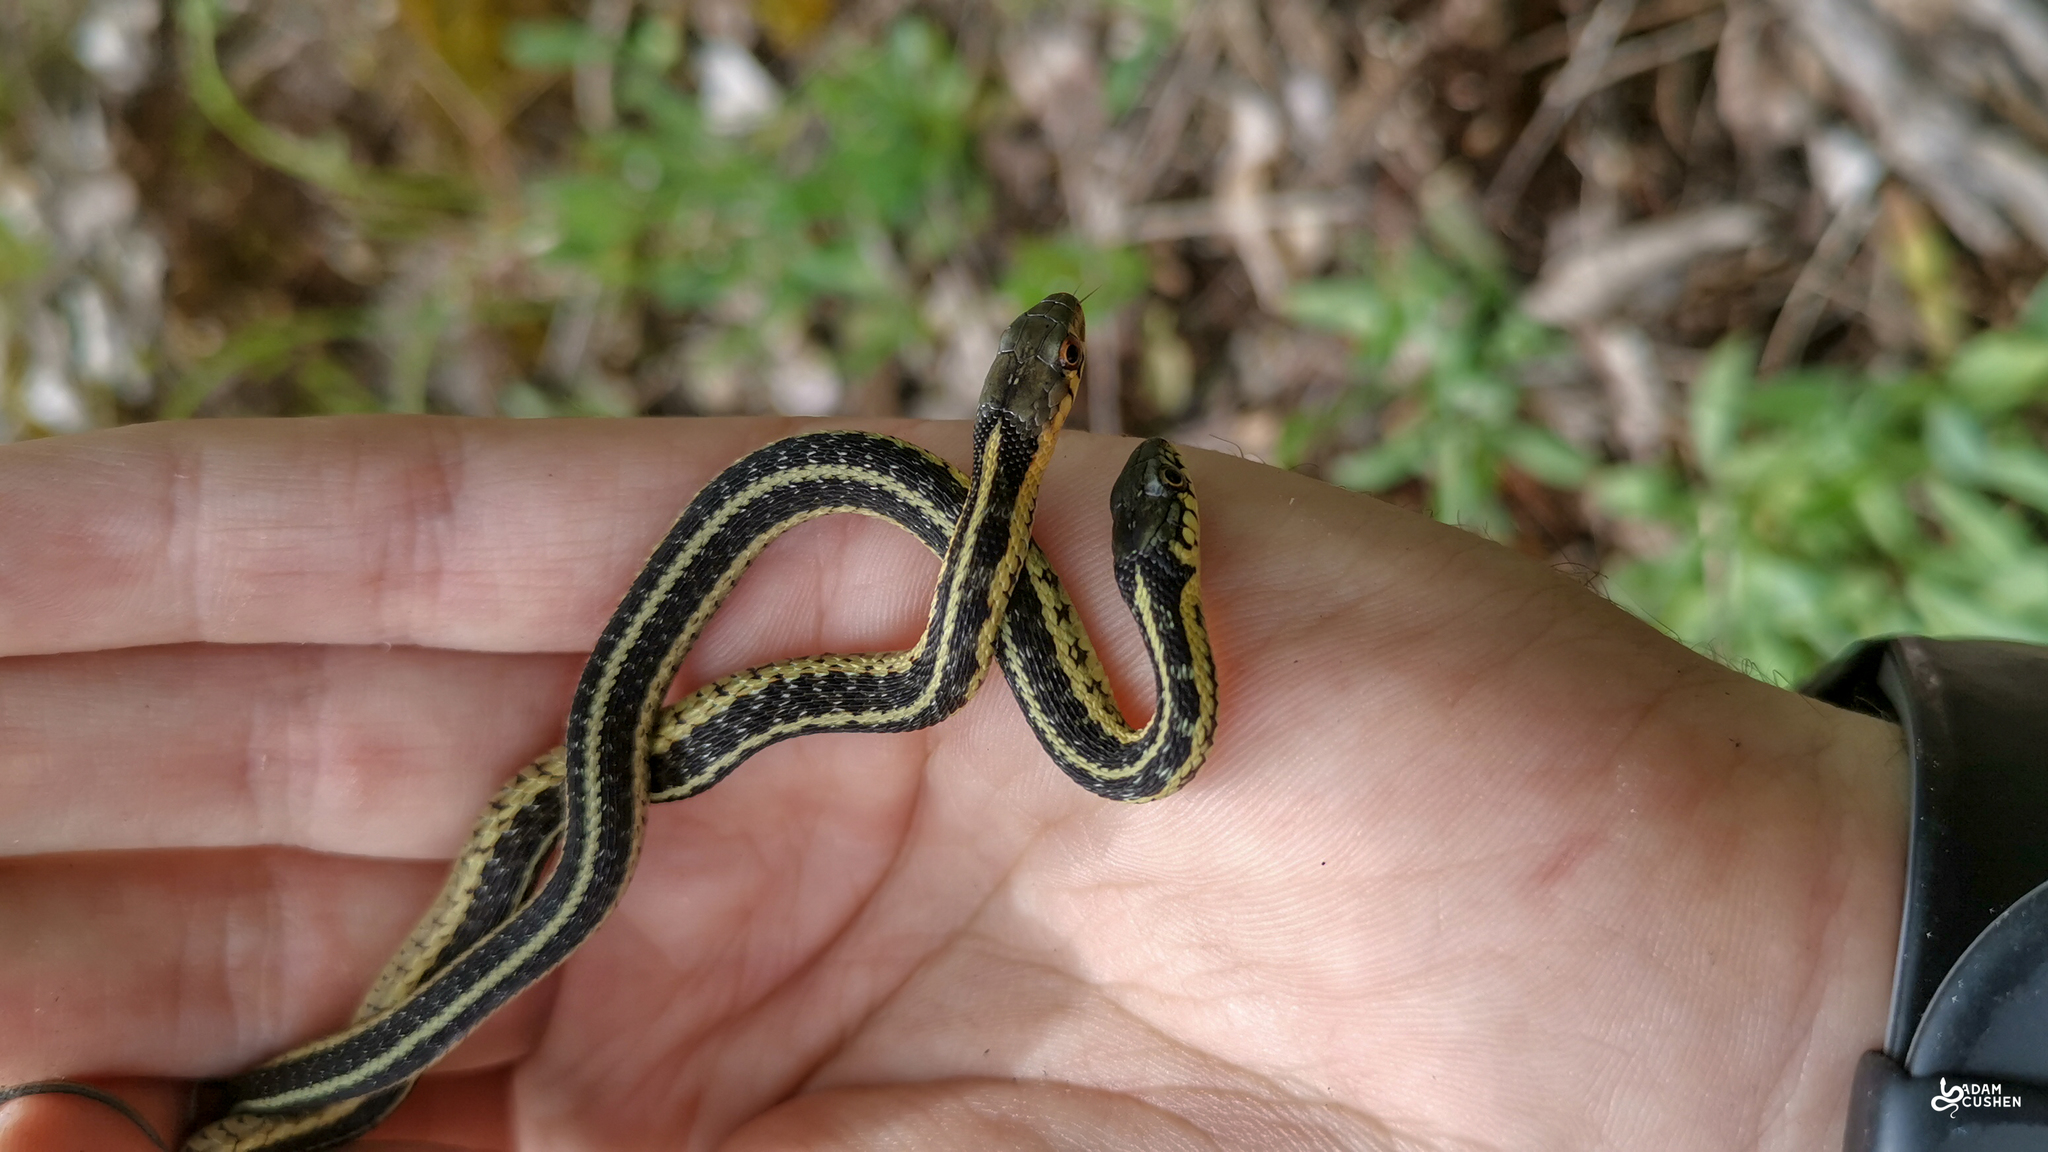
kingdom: Animalia
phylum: Chordata
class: Squamata
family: Colubridae
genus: Thamnophis
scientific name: Thamnophis sirtalis
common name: Common garter snake
